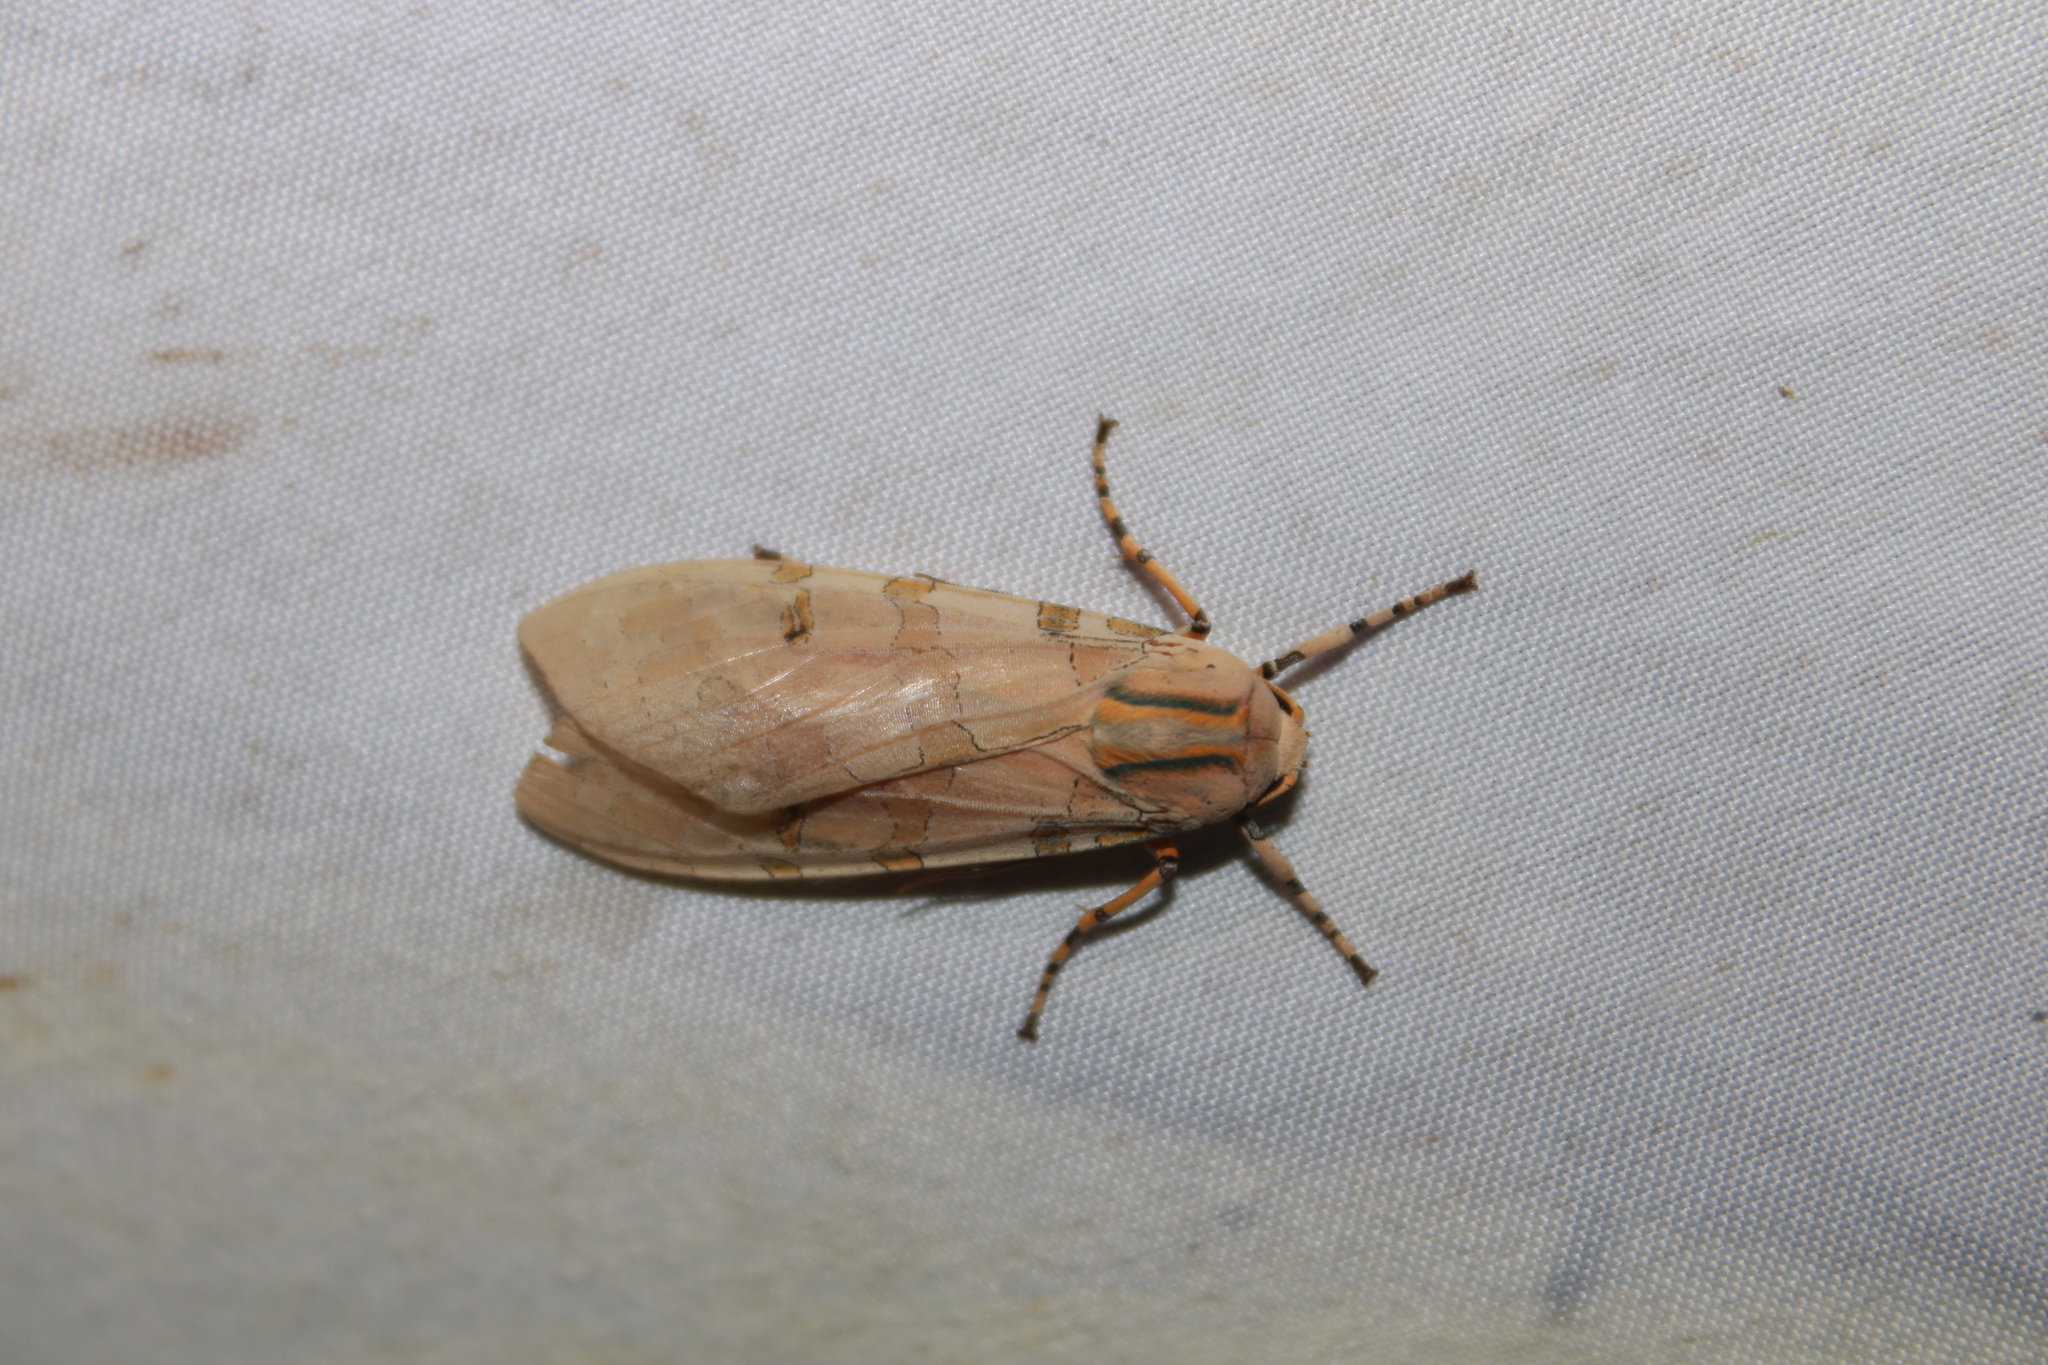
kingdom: Animalia
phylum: Arthropoda
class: Insecta
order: Lepidoptera
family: Erebidae
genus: Halysidota
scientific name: Halysidota cinctipes
